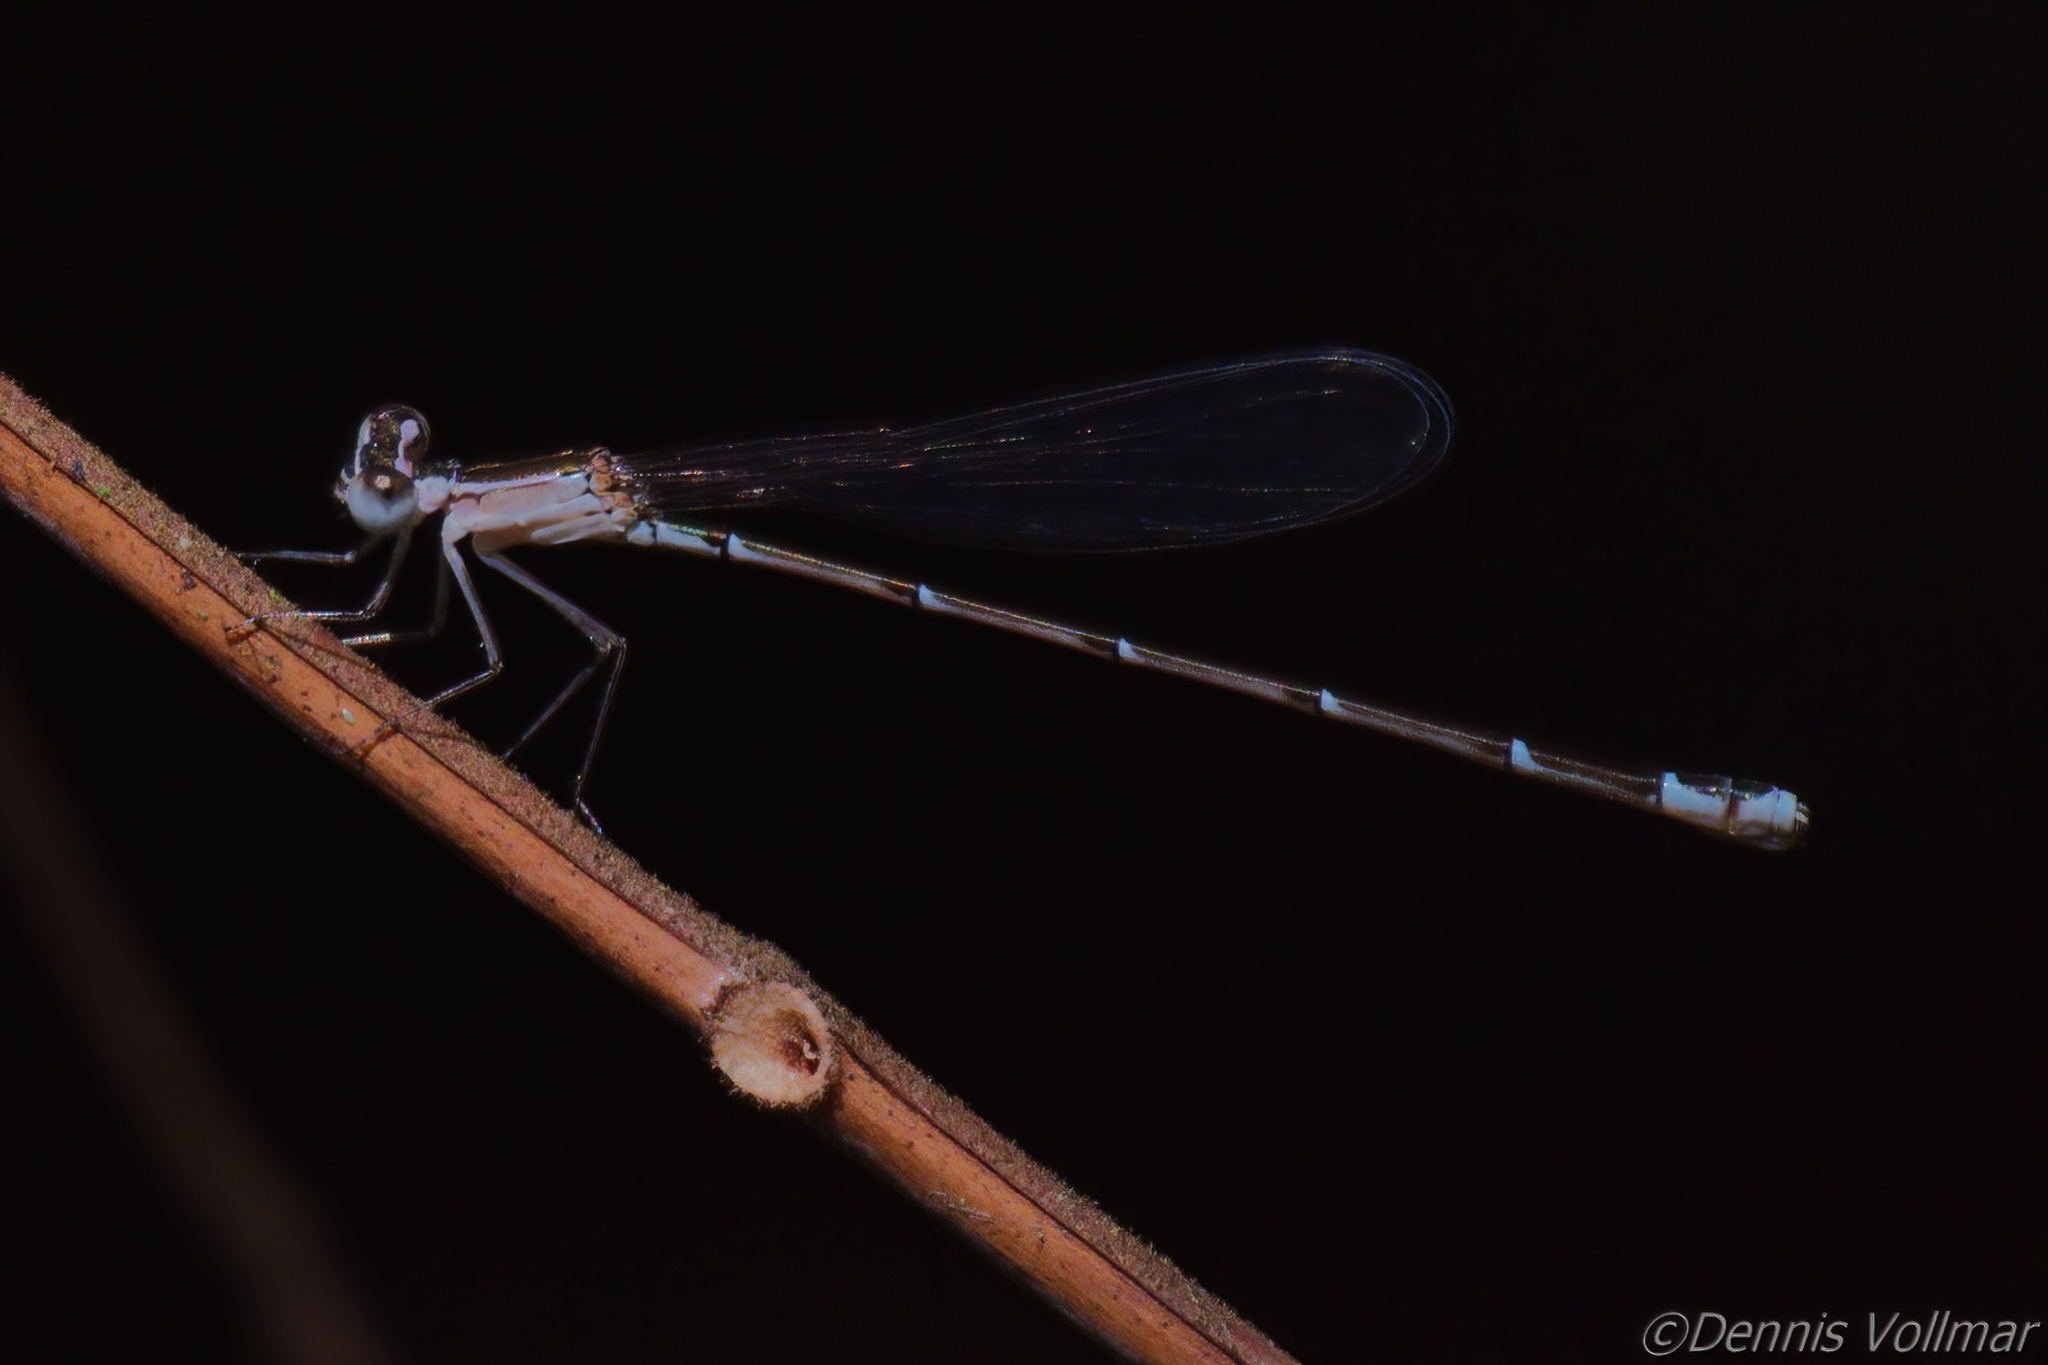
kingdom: Animalia
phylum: Arthropoda
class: Insecta
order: Odonata
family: Coenagrionidae
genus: Nehalennia
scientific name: Nehalennia pallidula
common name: Everglades sprite
